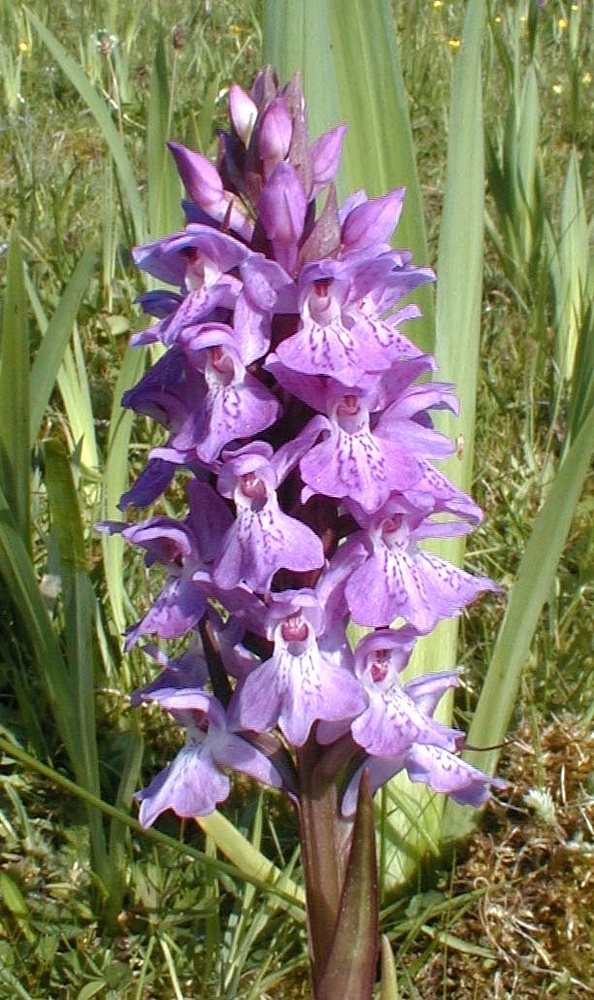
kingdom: Plantae
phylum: Tracheophyta
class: Liliopsida
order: Asparagales
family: Orchidaceae
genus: Dactylorhiza
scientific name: Dactylorhiza majalis
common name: Marsh orchid
